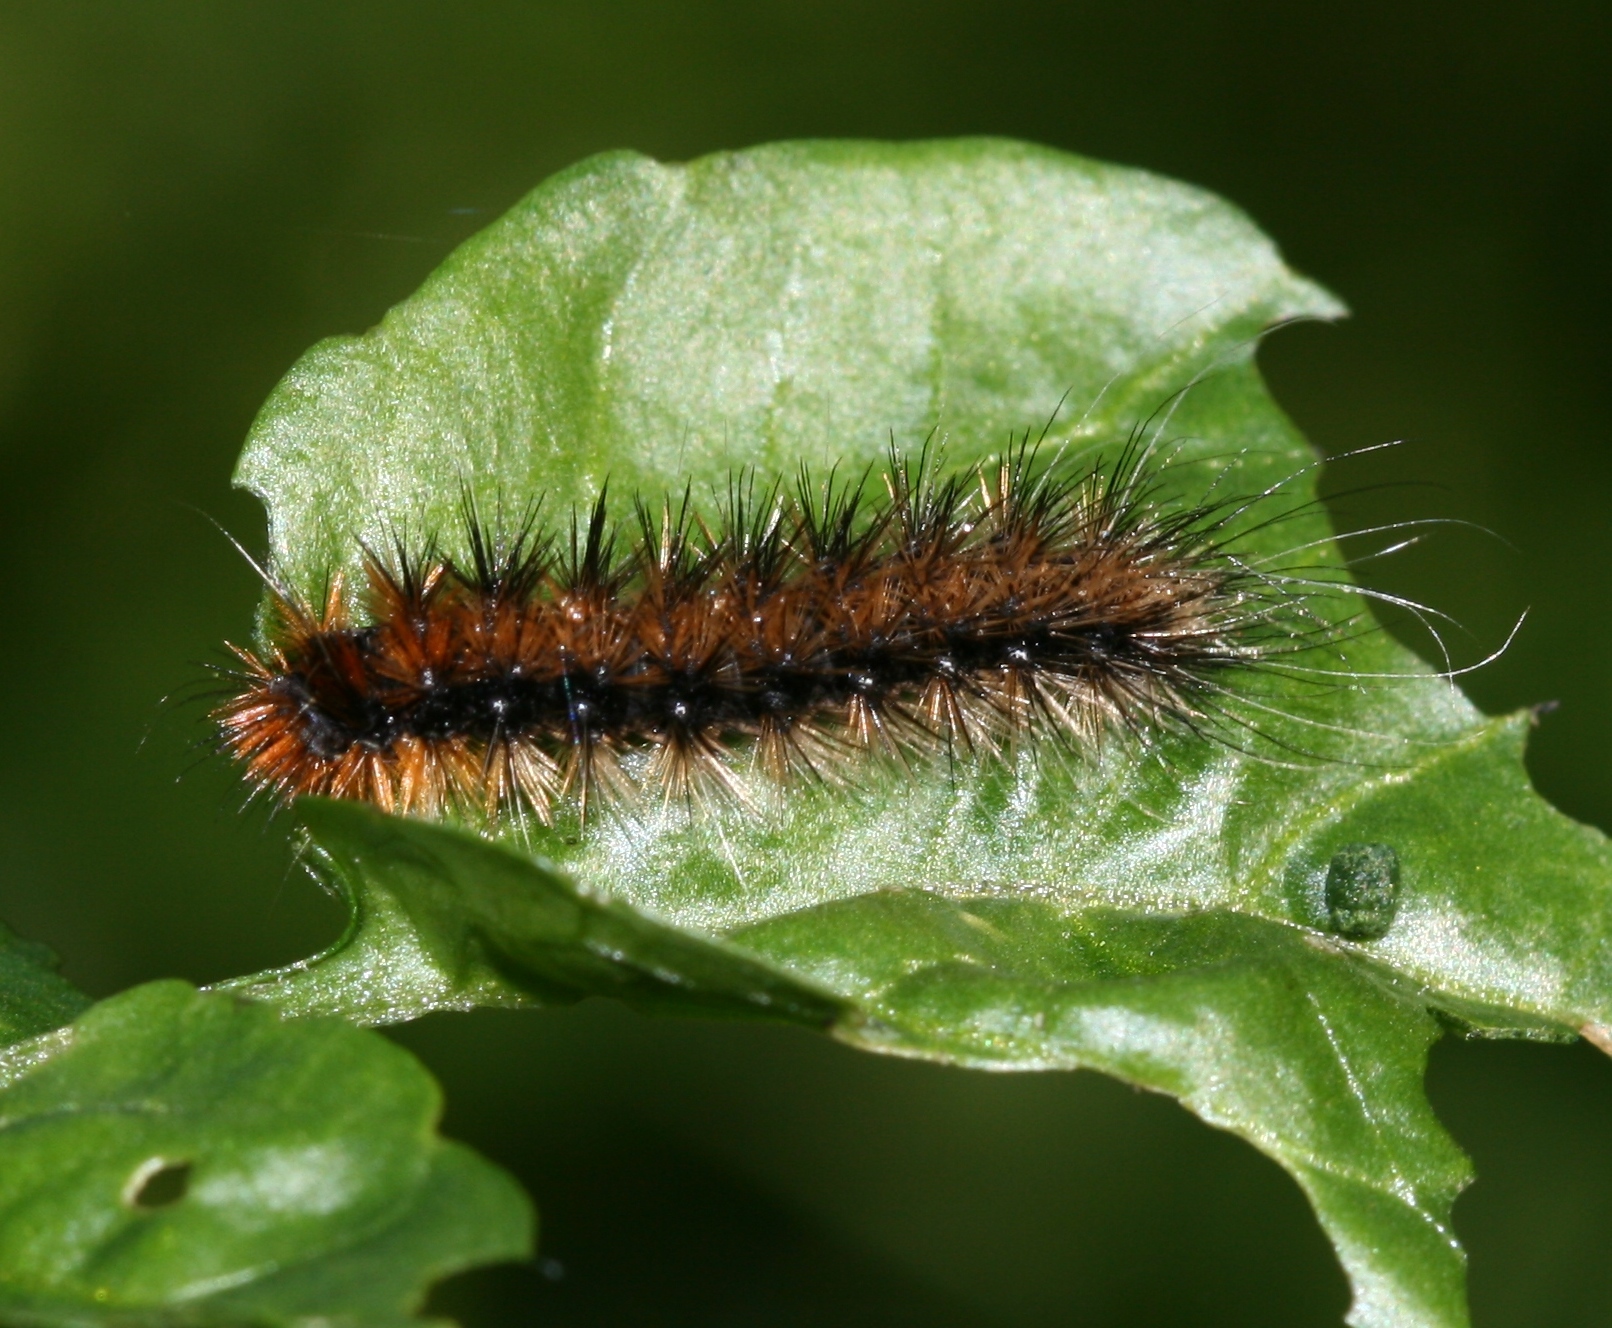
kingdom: Animalia
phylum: Arthropoda
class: Insecta
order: Lepidoptera
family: Erebidae
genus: Arctia
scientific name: Arctia caja
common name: Garden tiger
